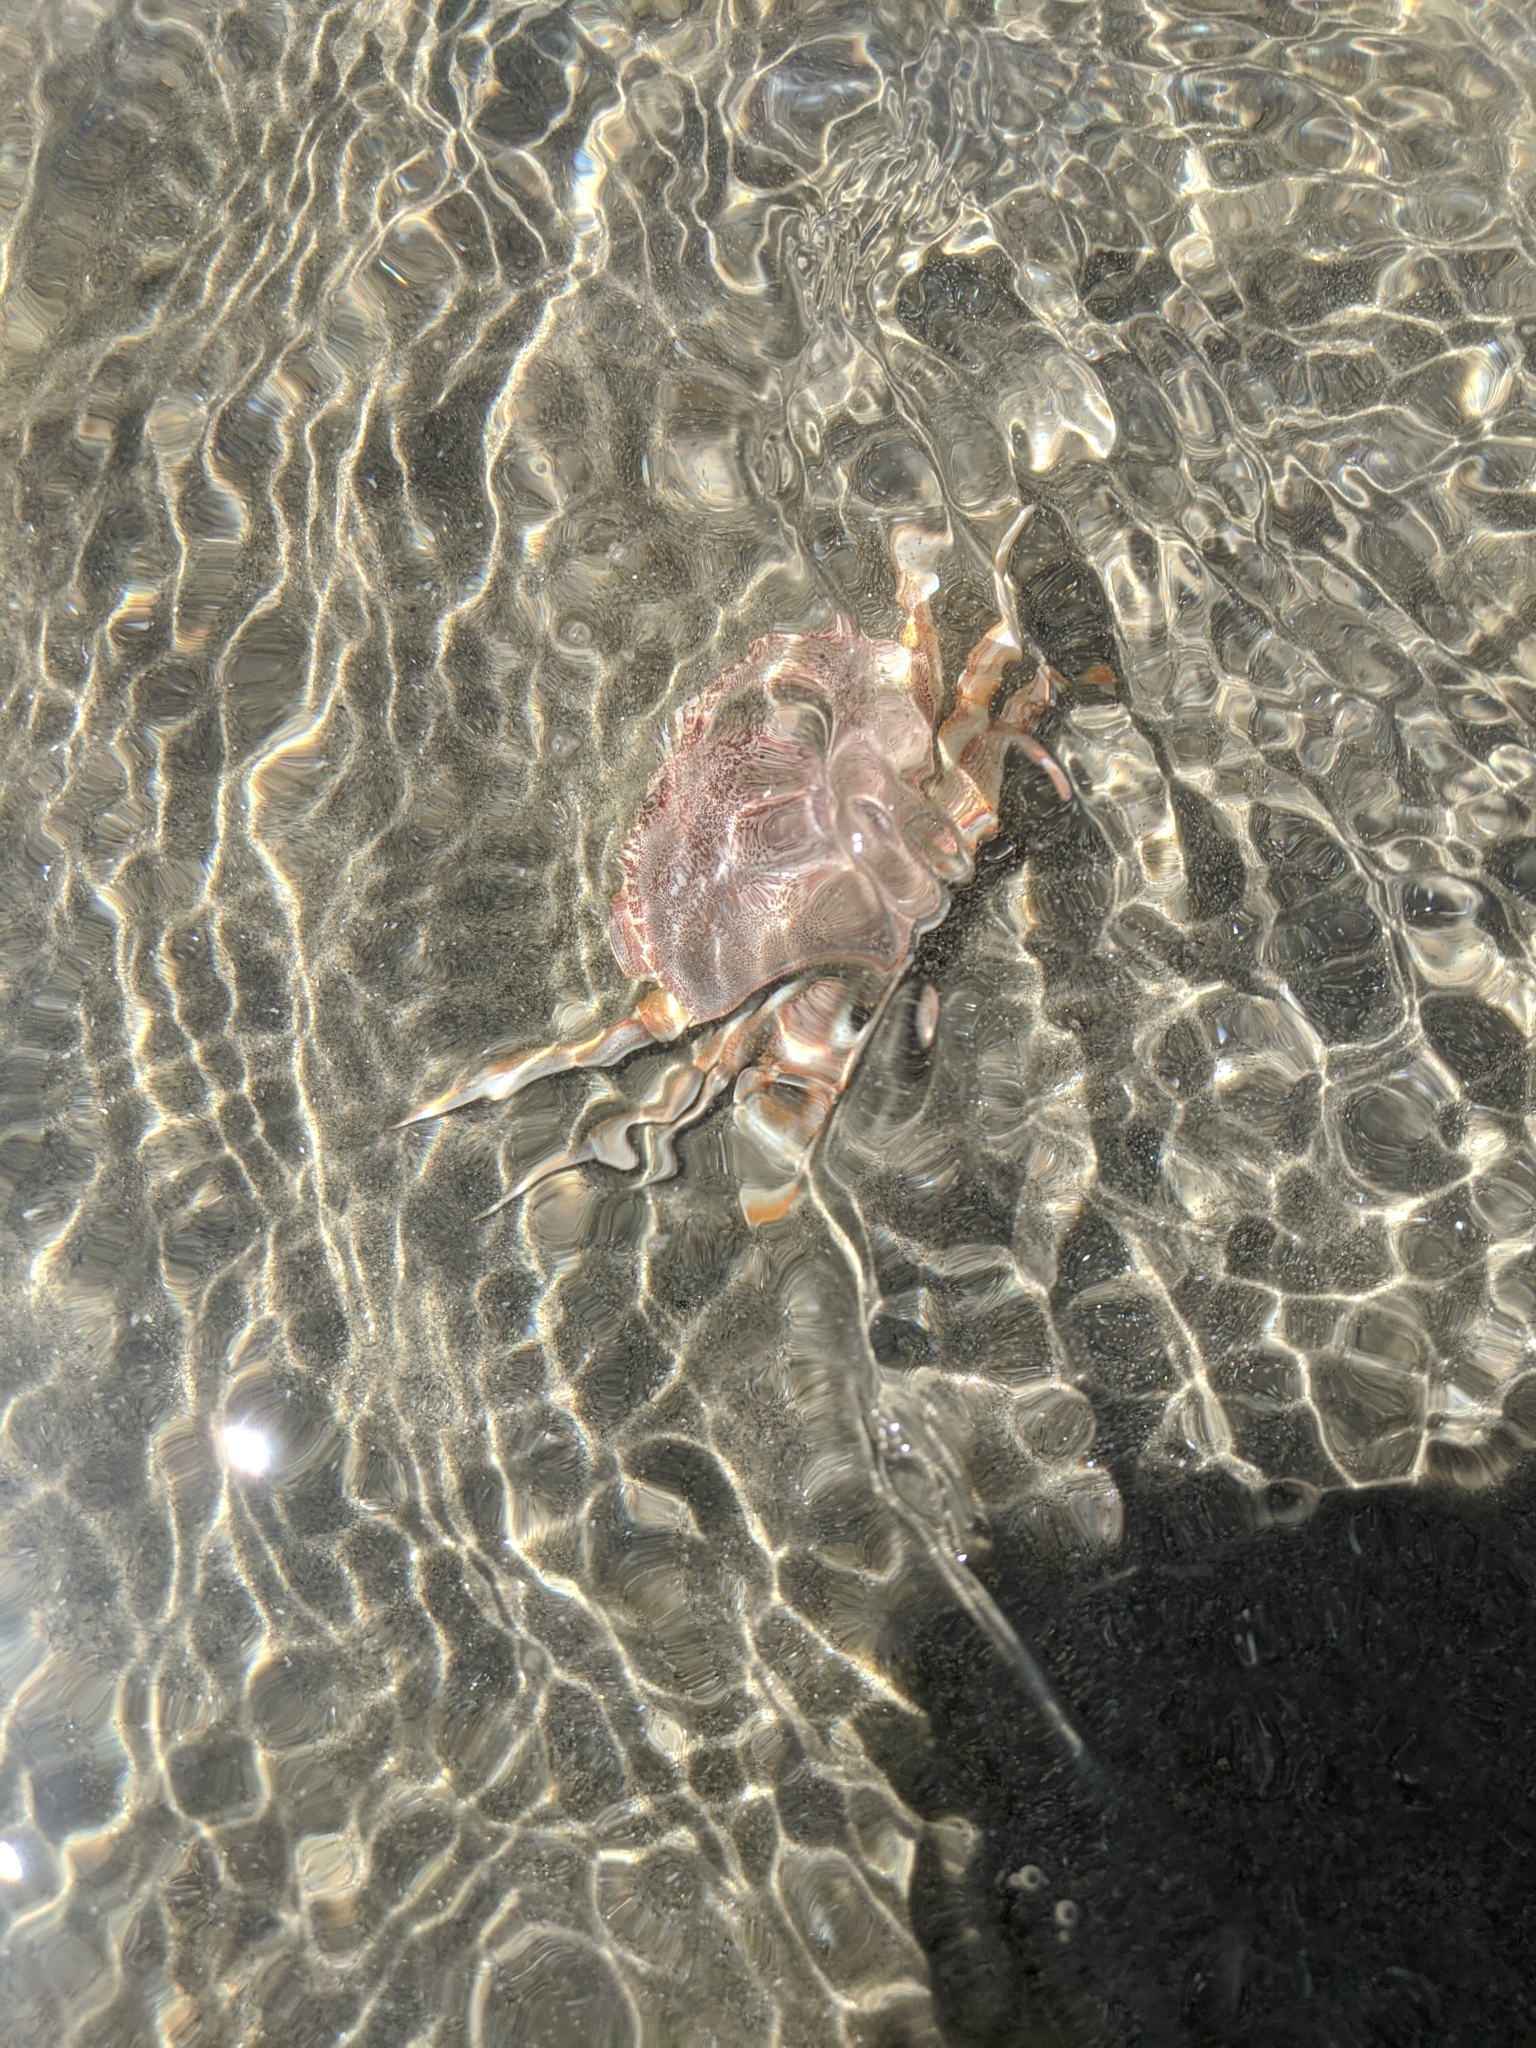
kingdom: Animalia
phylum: Arthropoda
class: Malacostraca
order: Decapoda
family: Cancridae
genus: Metacarcinus
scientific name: Metacarcinus magister
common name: Californian crab
